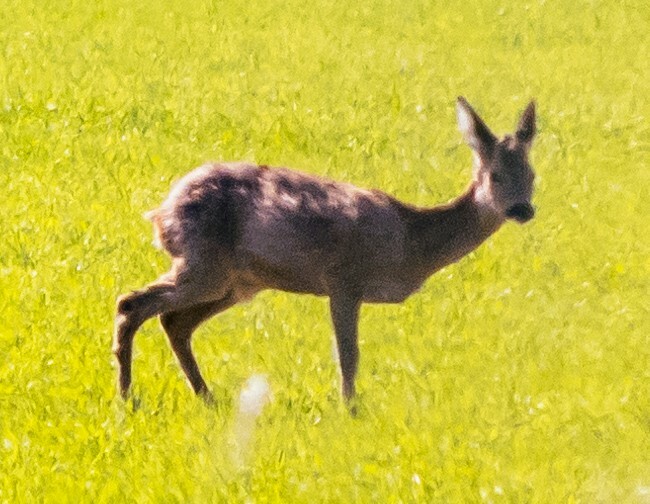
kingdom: Animalia
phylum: Chordata
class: Mammalia
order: Artiodactyla
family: Cervidae
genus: Capreolus
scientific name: Capreolus capreolus
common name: Western roe deer
